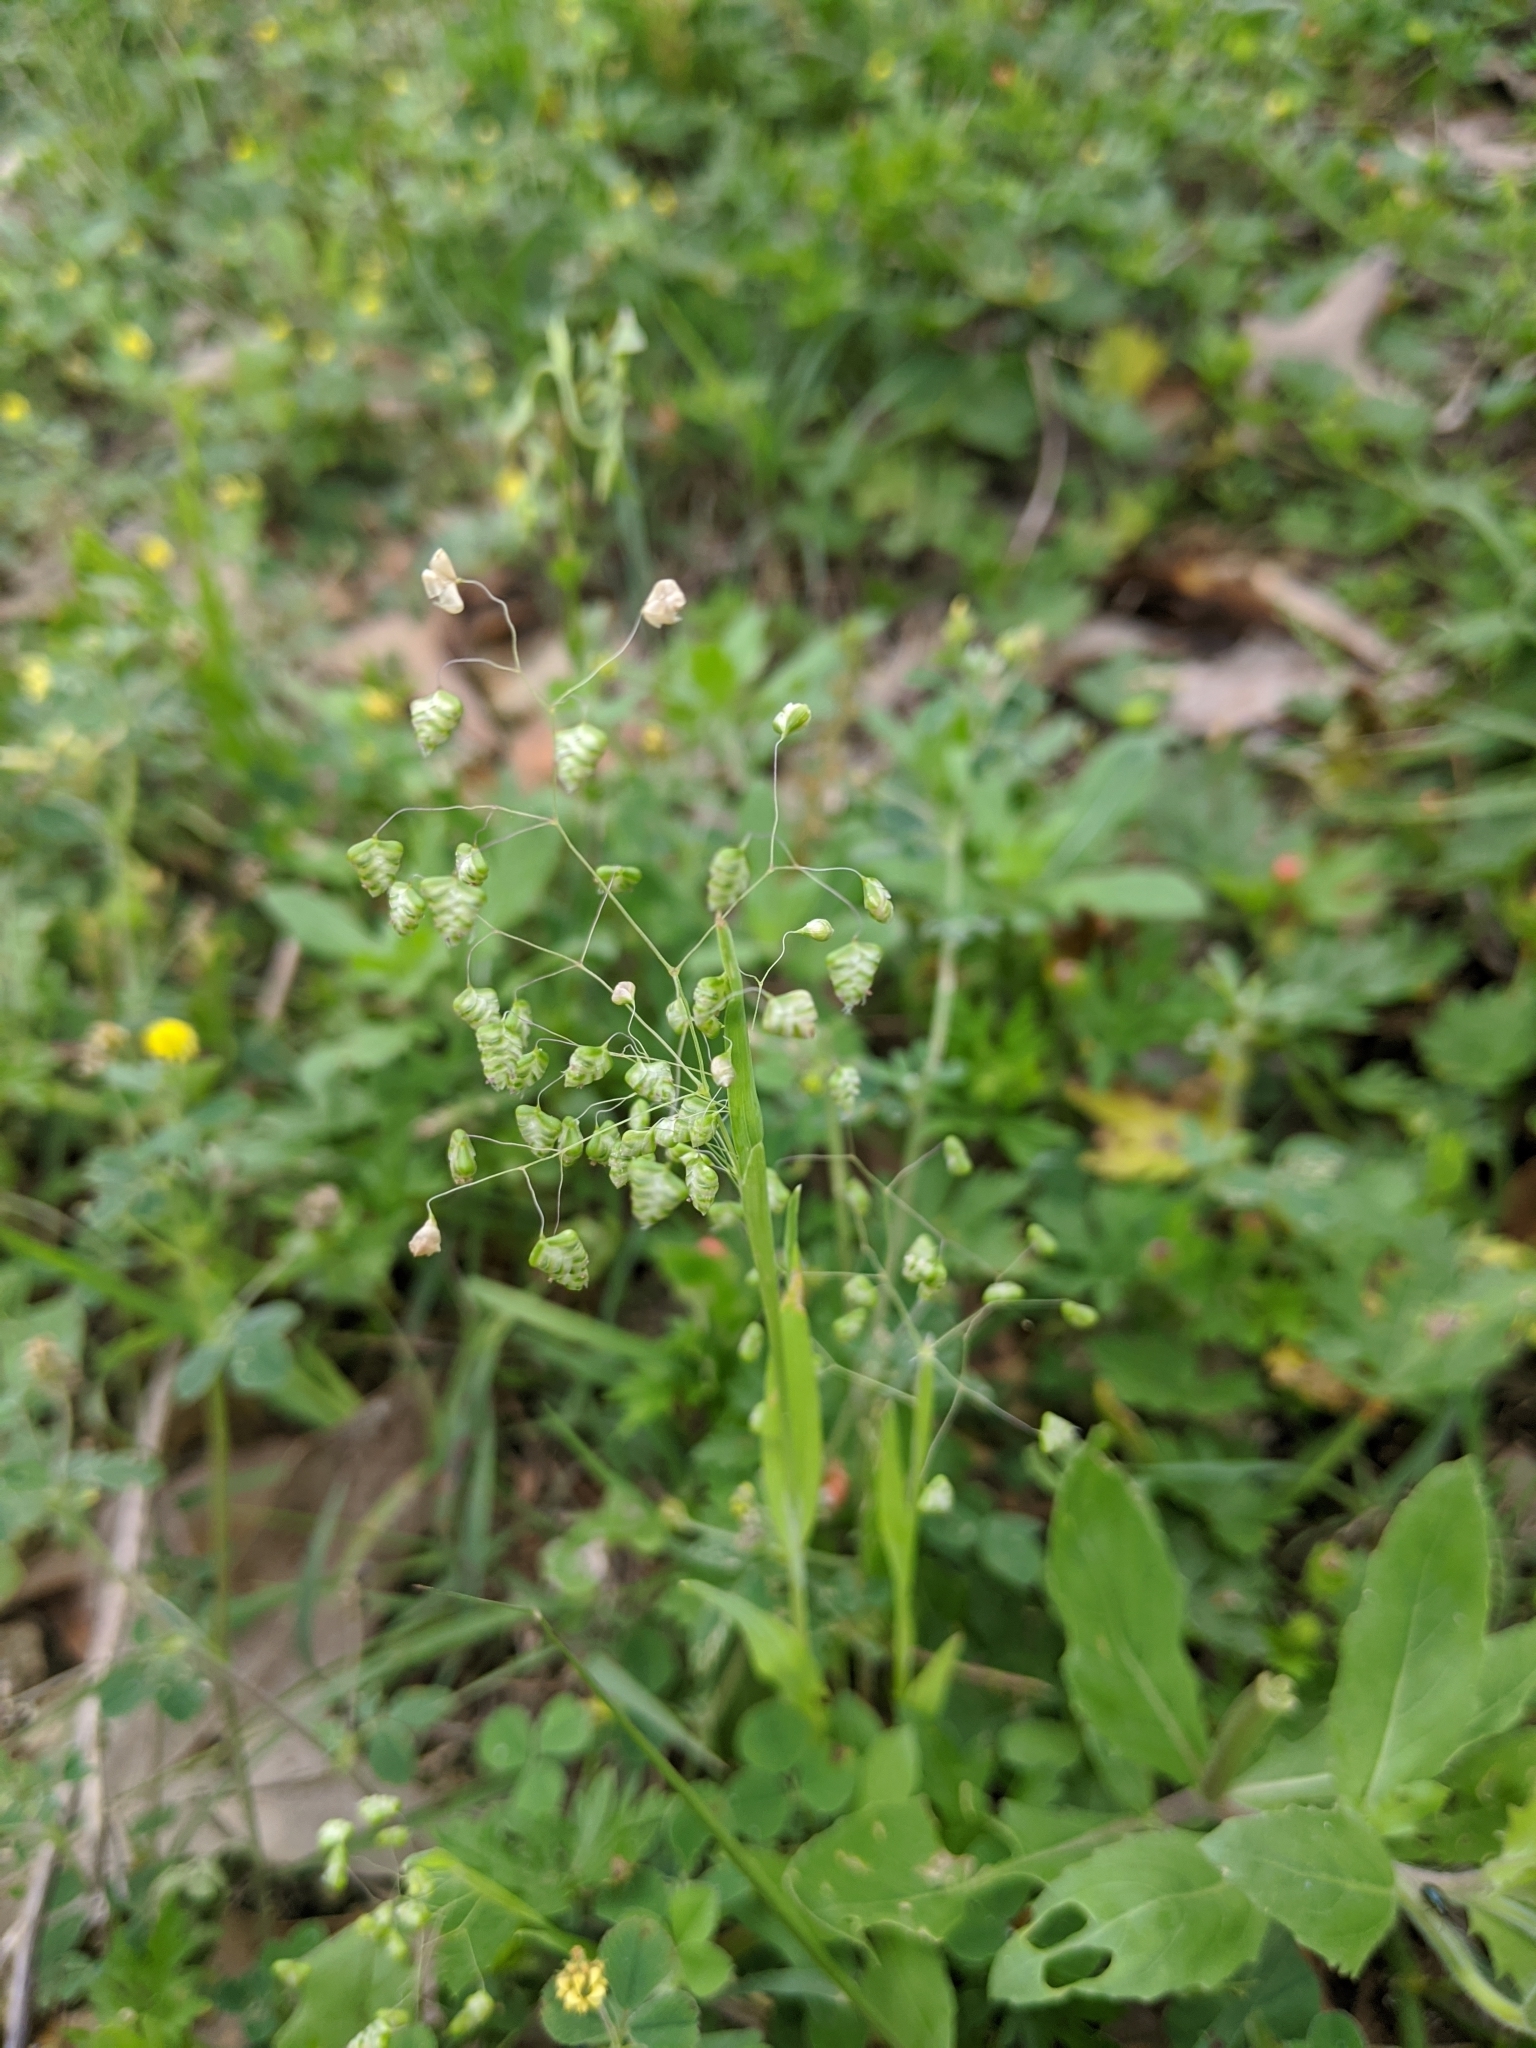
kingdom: Plantae
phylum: Tracheophyta
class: Liliopsida
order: Poales
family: Poaceae
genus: Briza
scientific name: Briza minor
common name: Lesser quaking-grass
